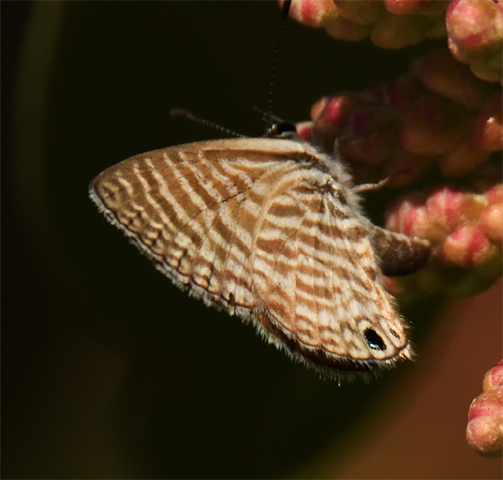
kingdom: Animalia
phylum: Arthropoda
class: Insecta
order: Lepidoptera
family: Lycaenidae
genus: Leptotes
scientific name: Leptotes marina
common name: Marine blue
